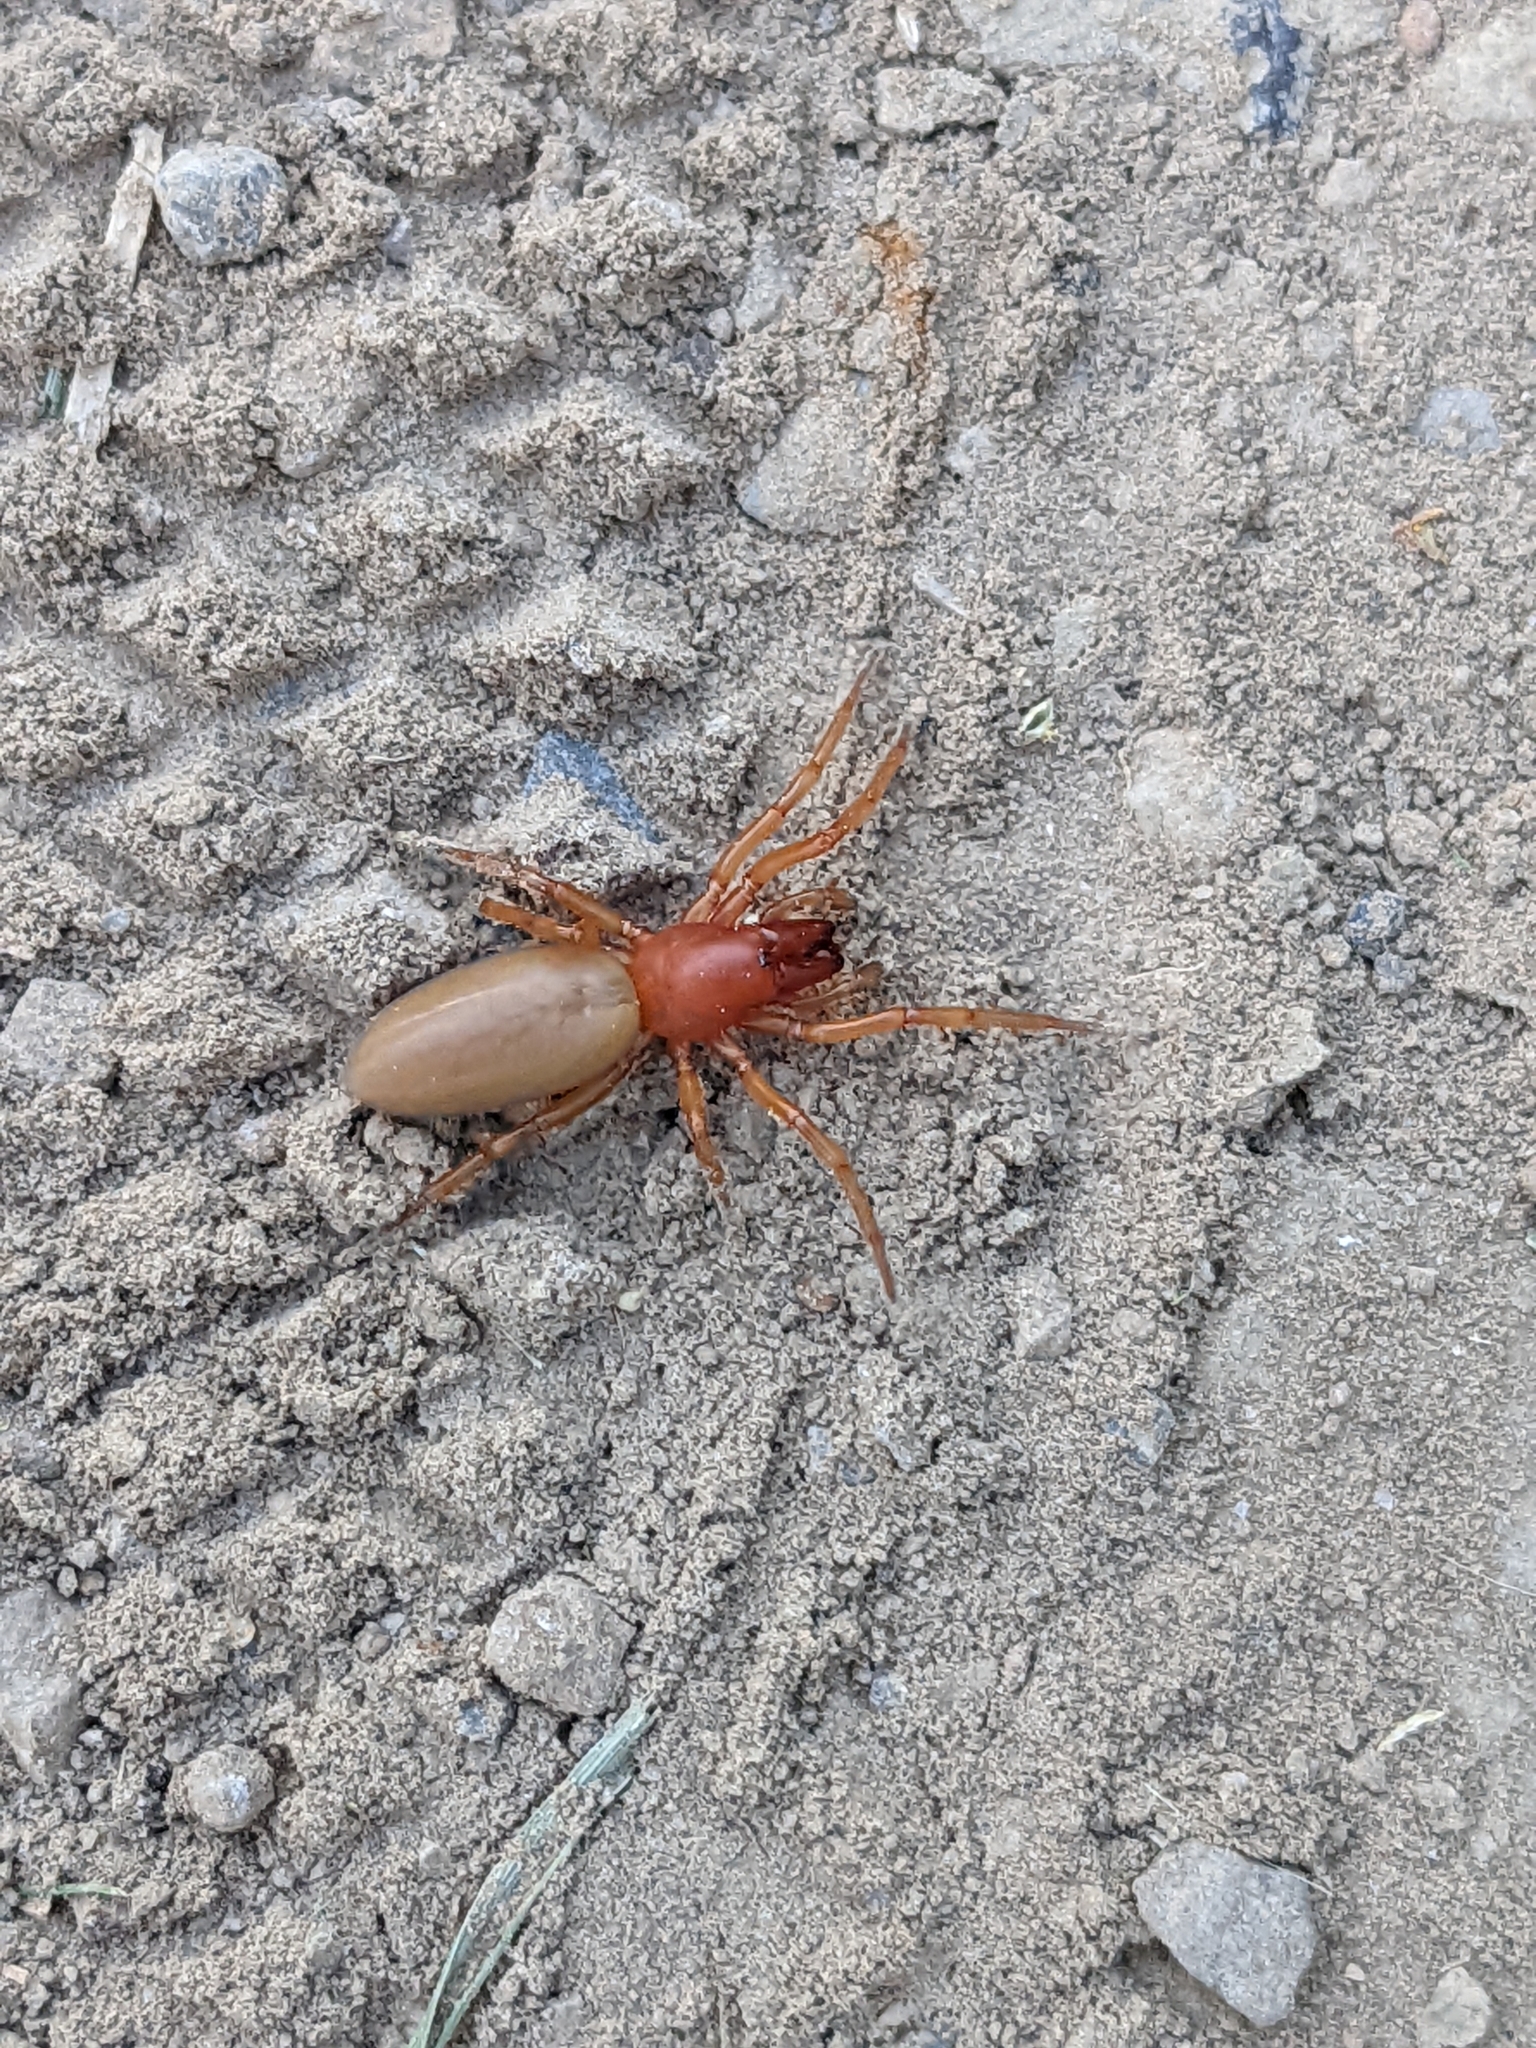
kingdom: Animalia
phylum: Arthropoda
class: Arachnida
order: Araneae
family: Dysderidae
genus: Dysdera
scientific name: Dysdera crocata
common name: Woodlouse spider
